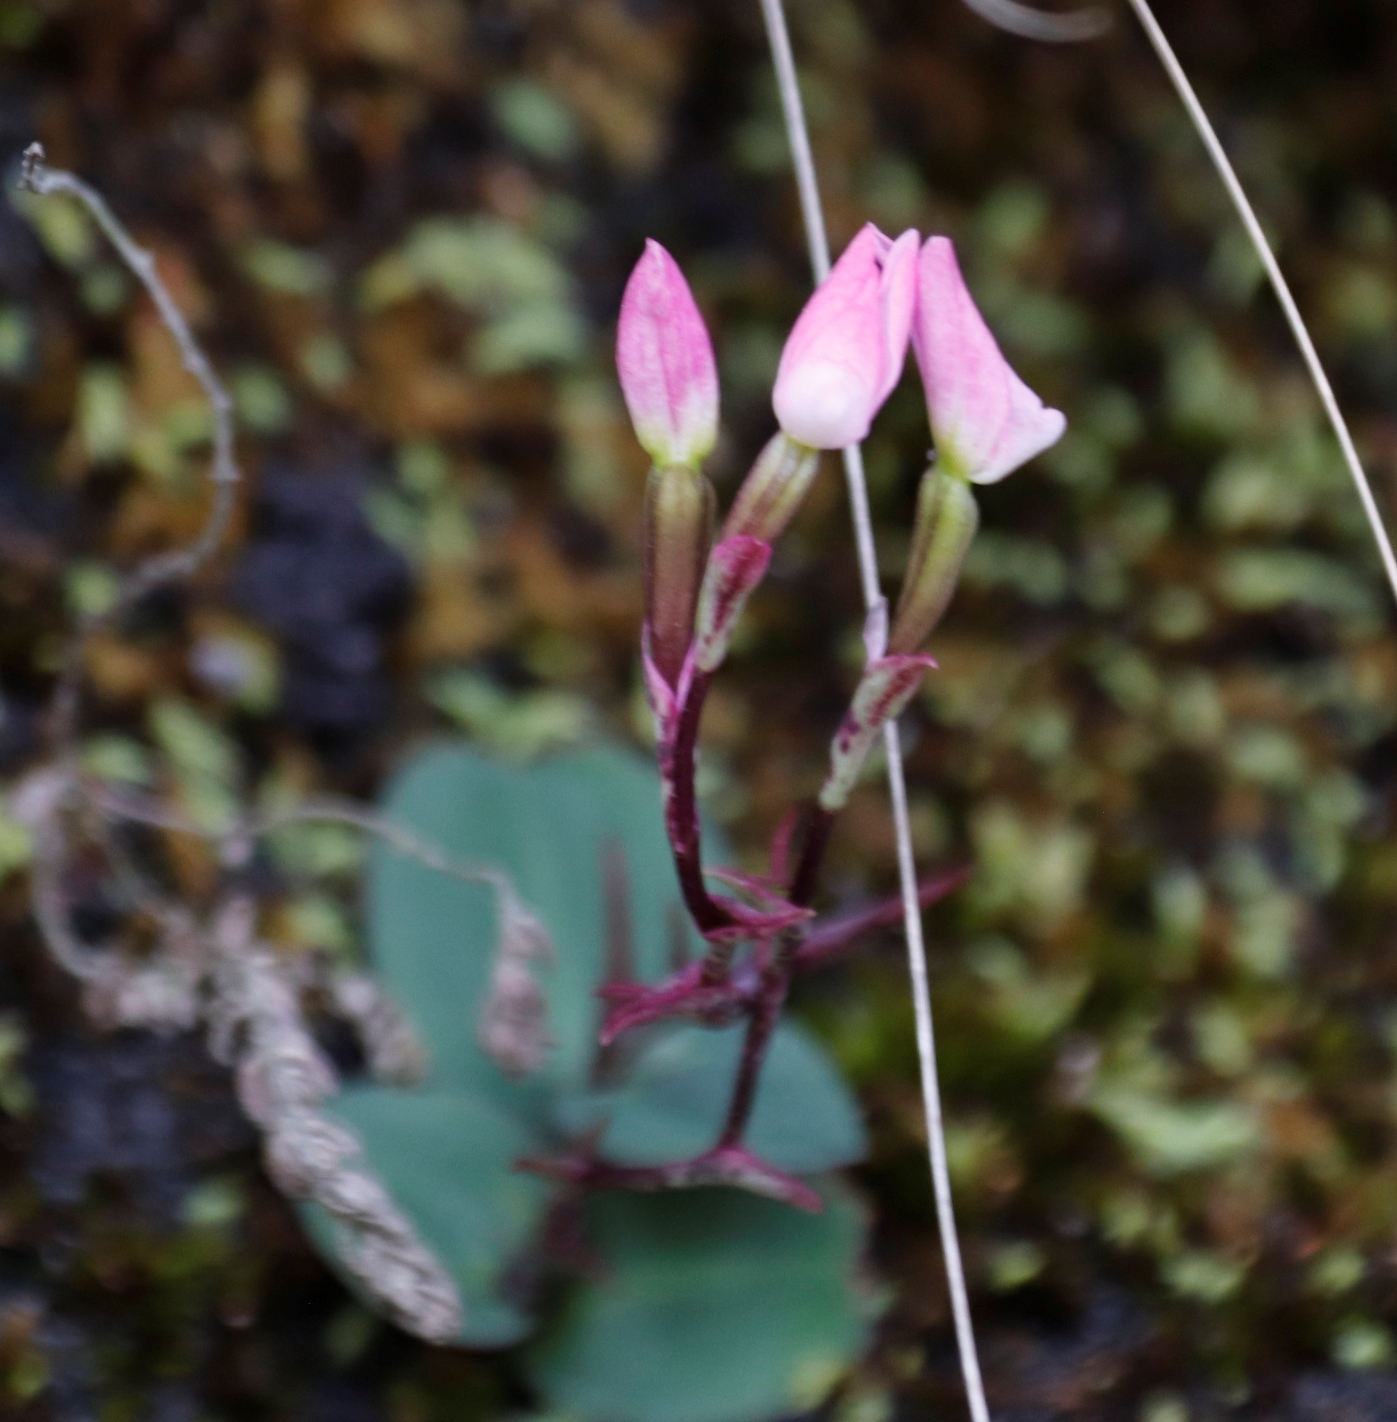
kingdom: Plantae
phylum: Tracheophyta
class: Liliopsida
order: Asparagales
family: Orchidaceae
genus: Disa
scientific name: Disa rosea
